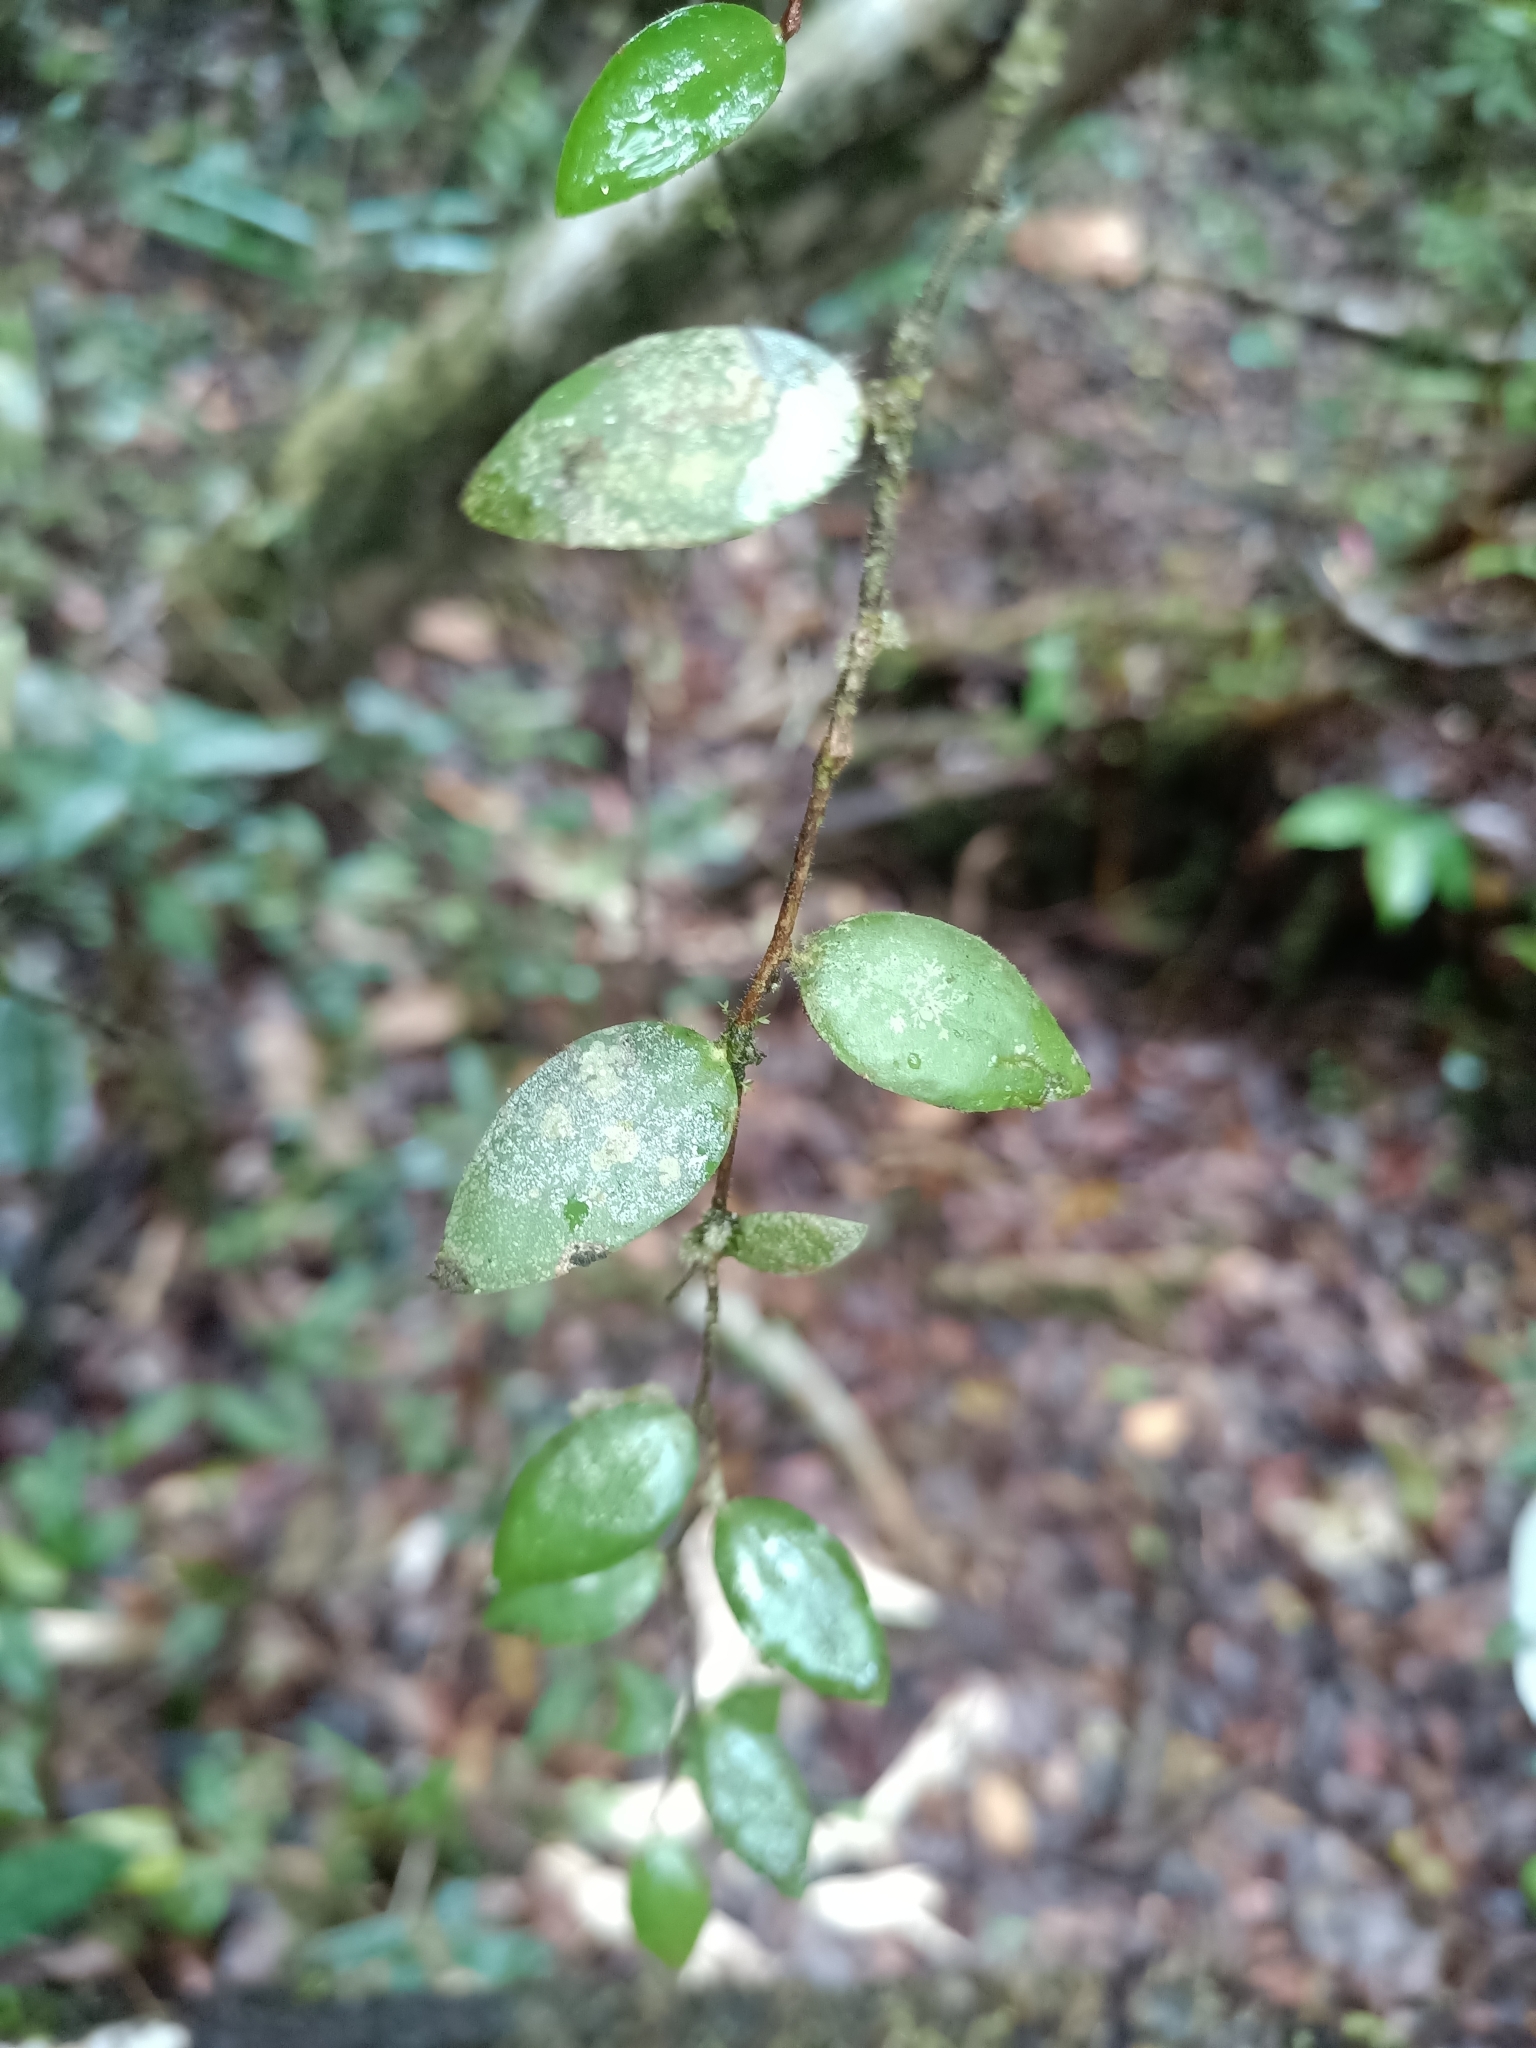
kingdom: Plantae
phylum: Tracheophyta
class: Magnoliopsida
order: Ericales
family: Ericaceae
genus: Sphyrospermum
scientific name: Sphyrospermum buxifolium
